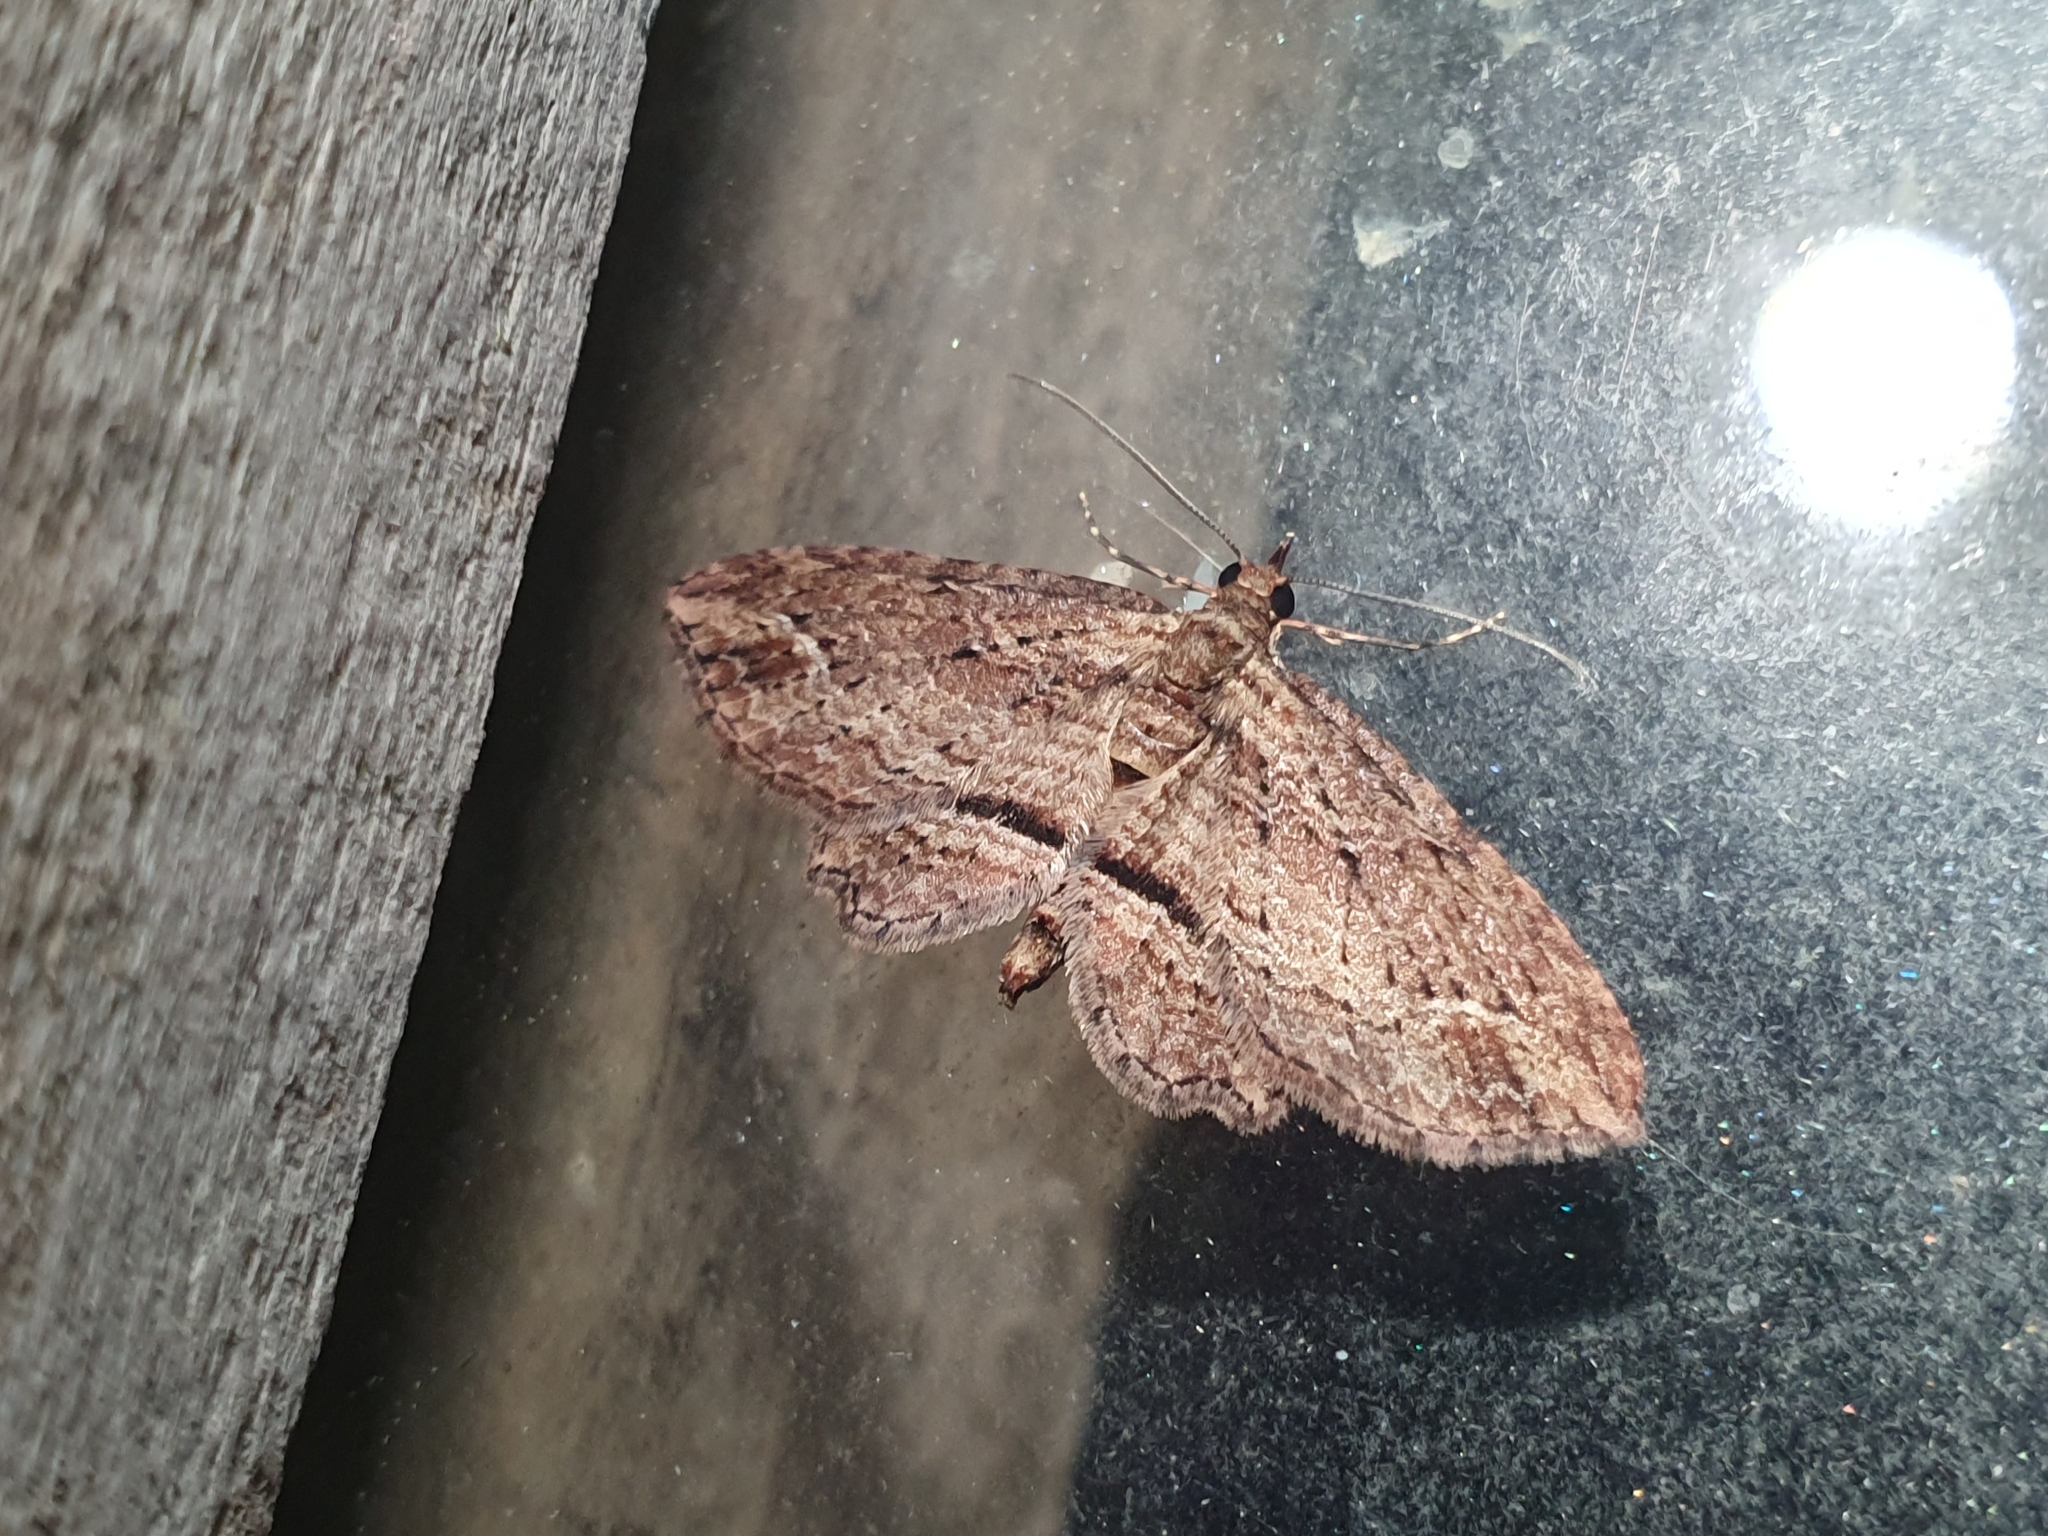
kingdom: Animalia
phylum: Arthropoda
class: Insecta
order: Lepidoptera
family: Geometridae
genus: Chloroclystis
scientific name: Chloroclystis filata
